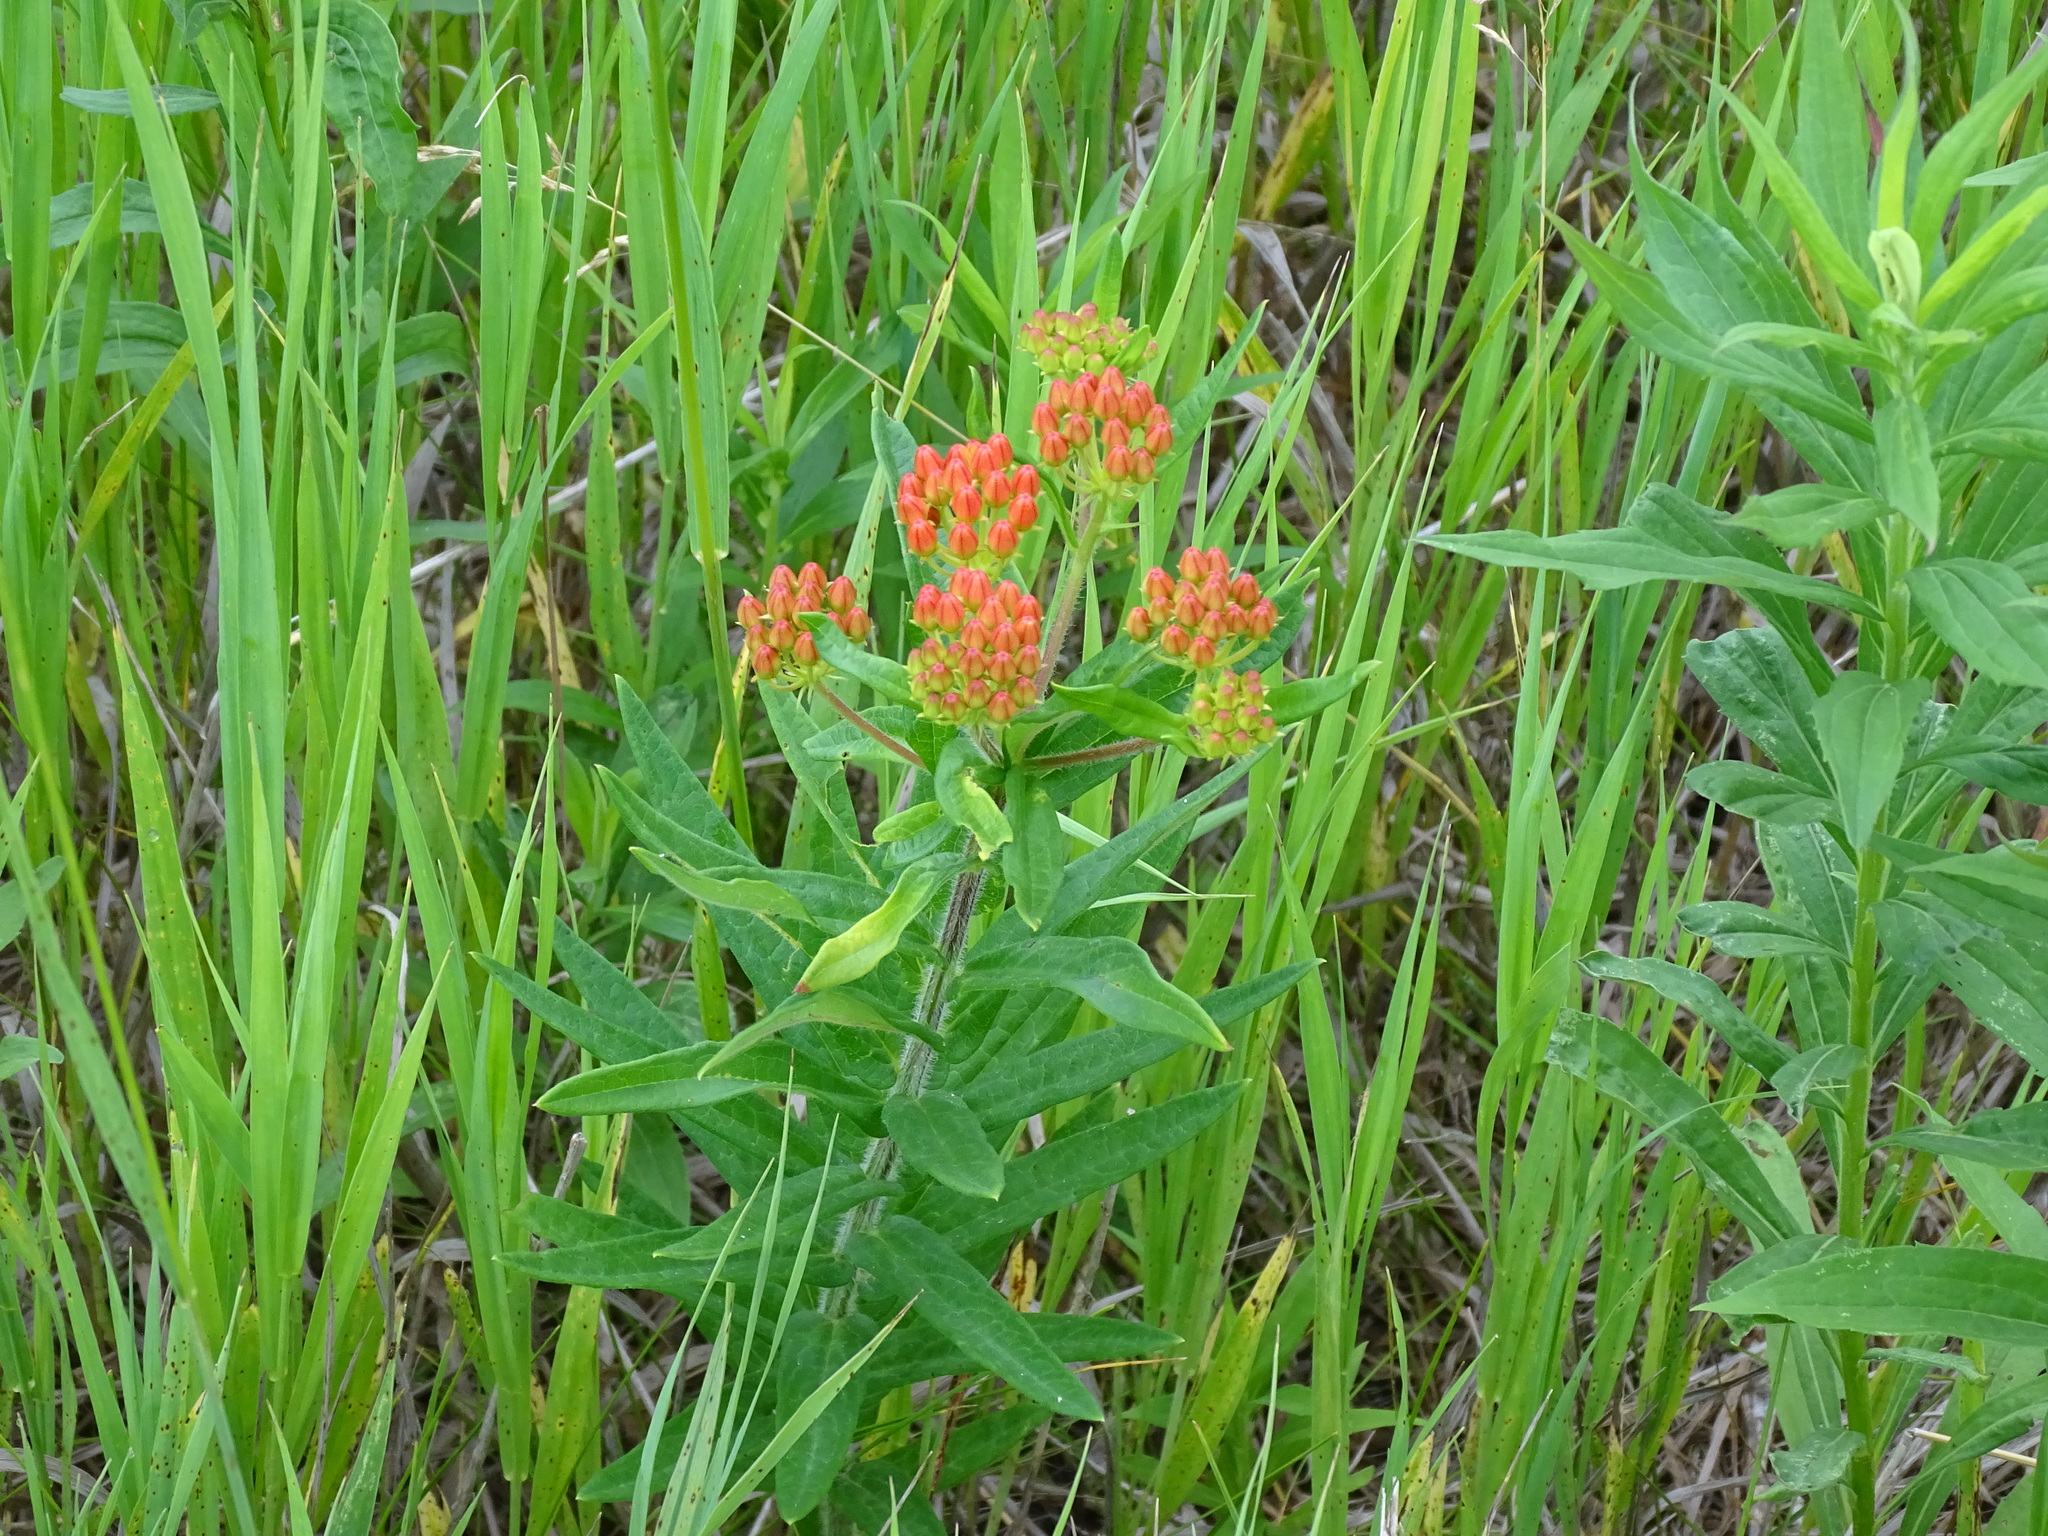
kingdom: Plantae
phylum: Tracheophyta
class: Magnoliopsida
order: Gentianales
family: Apocynaceae
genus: Asclepias
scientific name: Asclepias tuberosa
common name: Butterfly milkweed
